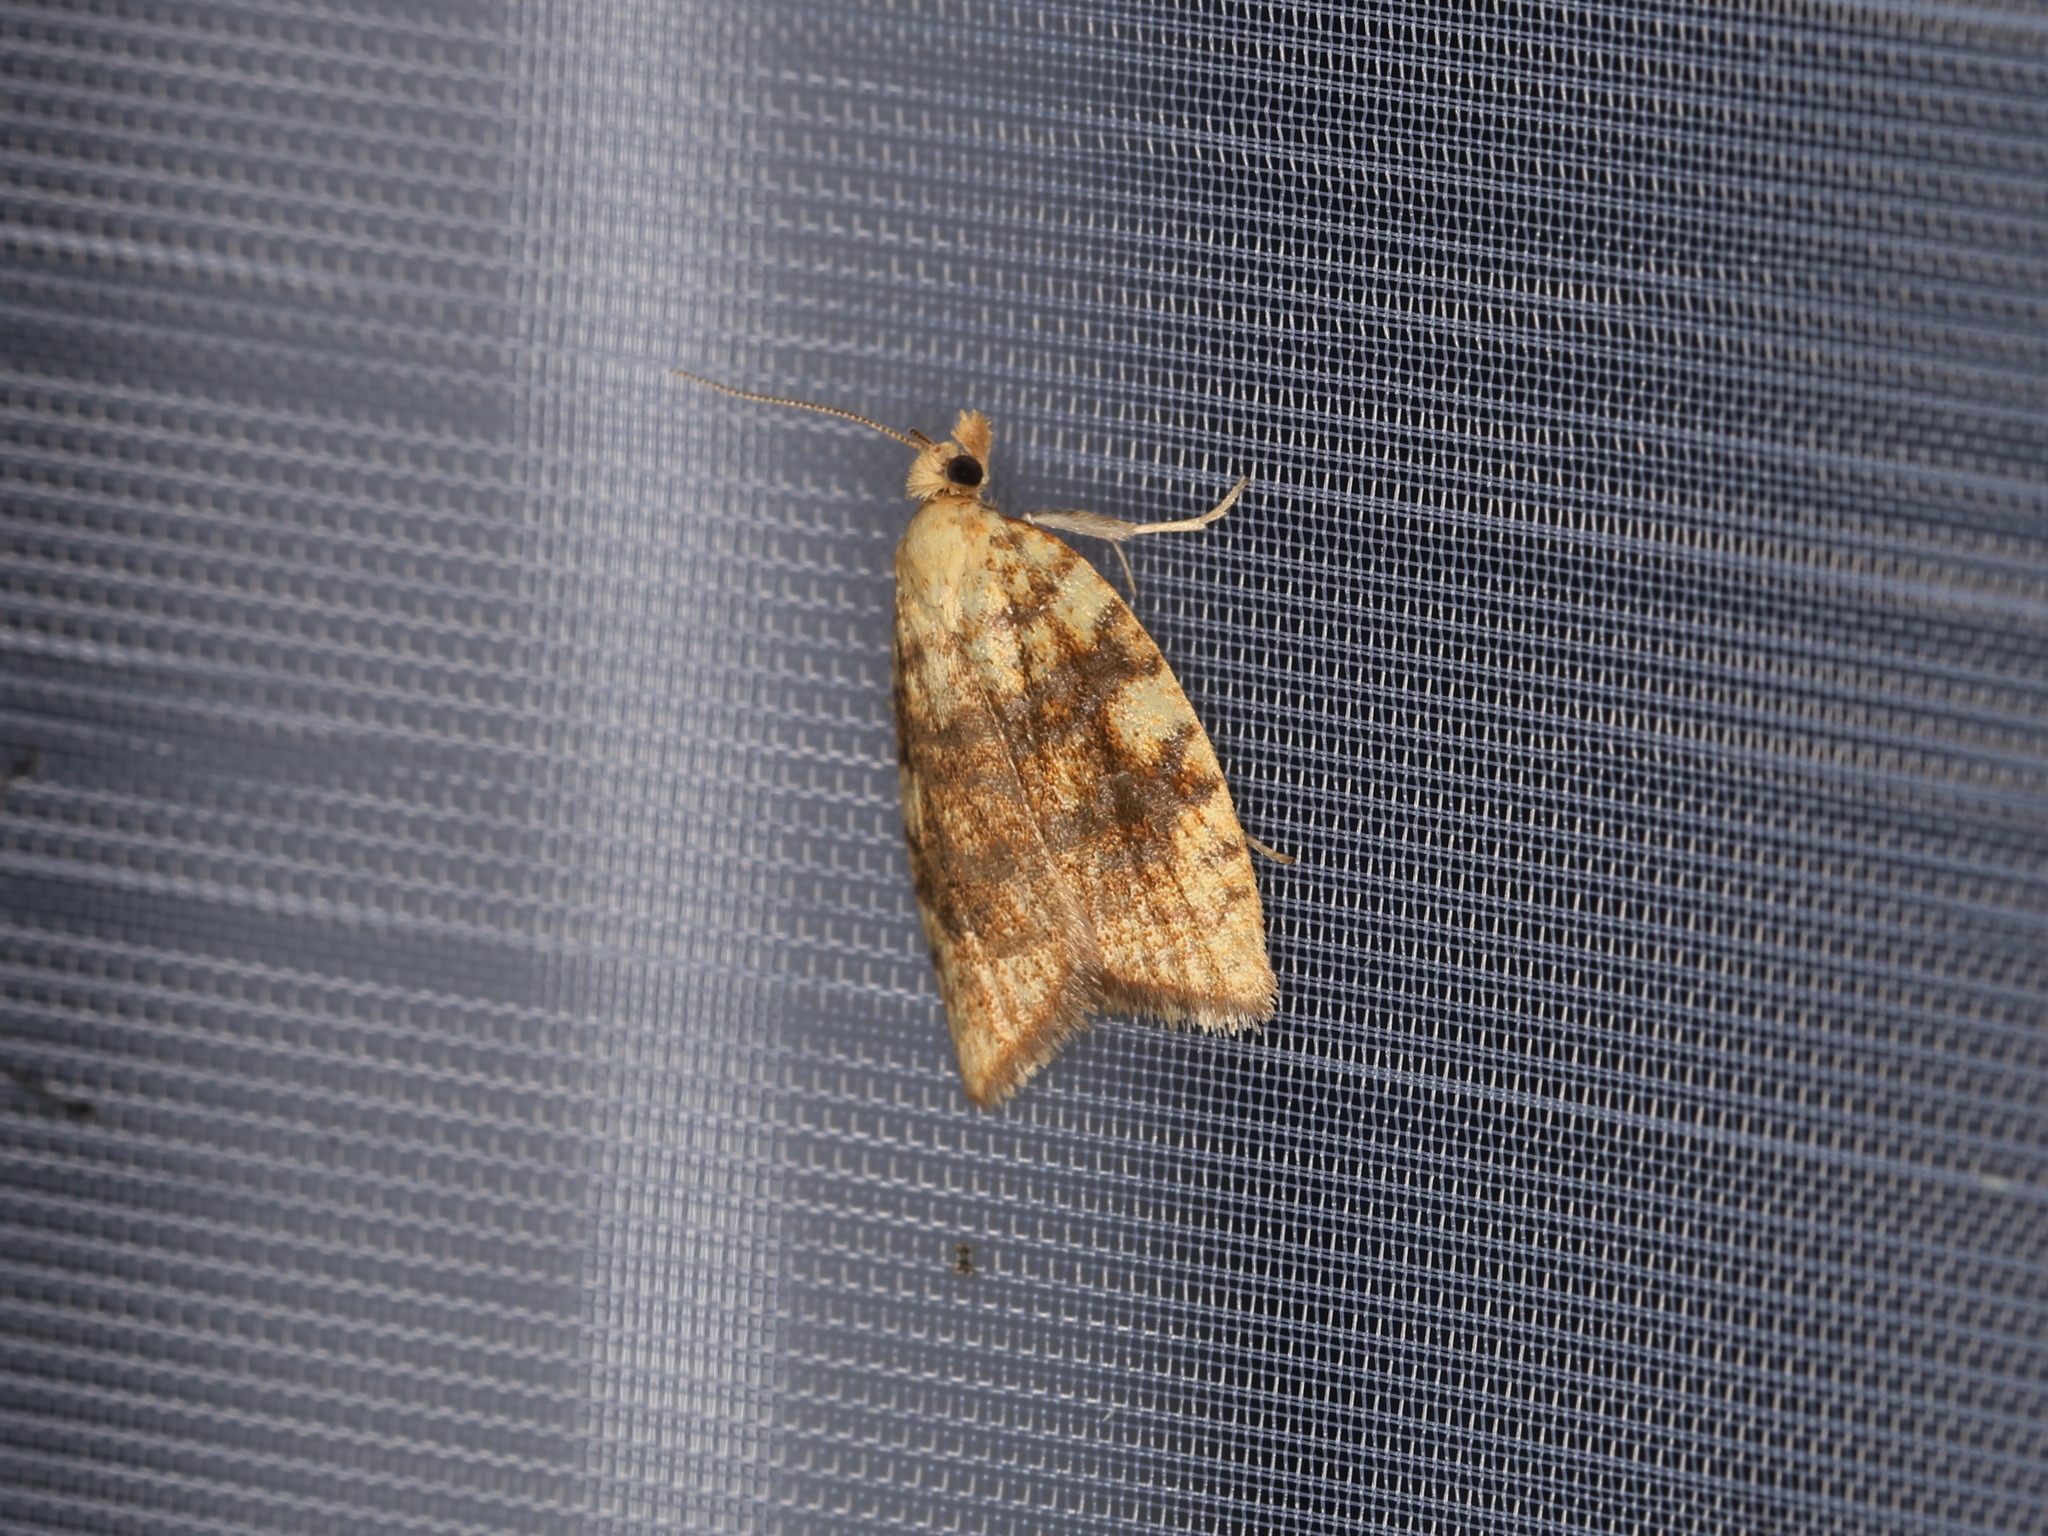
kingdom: Animalia
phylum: Arthropoda
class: Insecta
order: Lepidoptera
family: Tortricidae
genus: Aleimma
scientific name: Aleimma loeflingiana
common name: Yellow oak button
